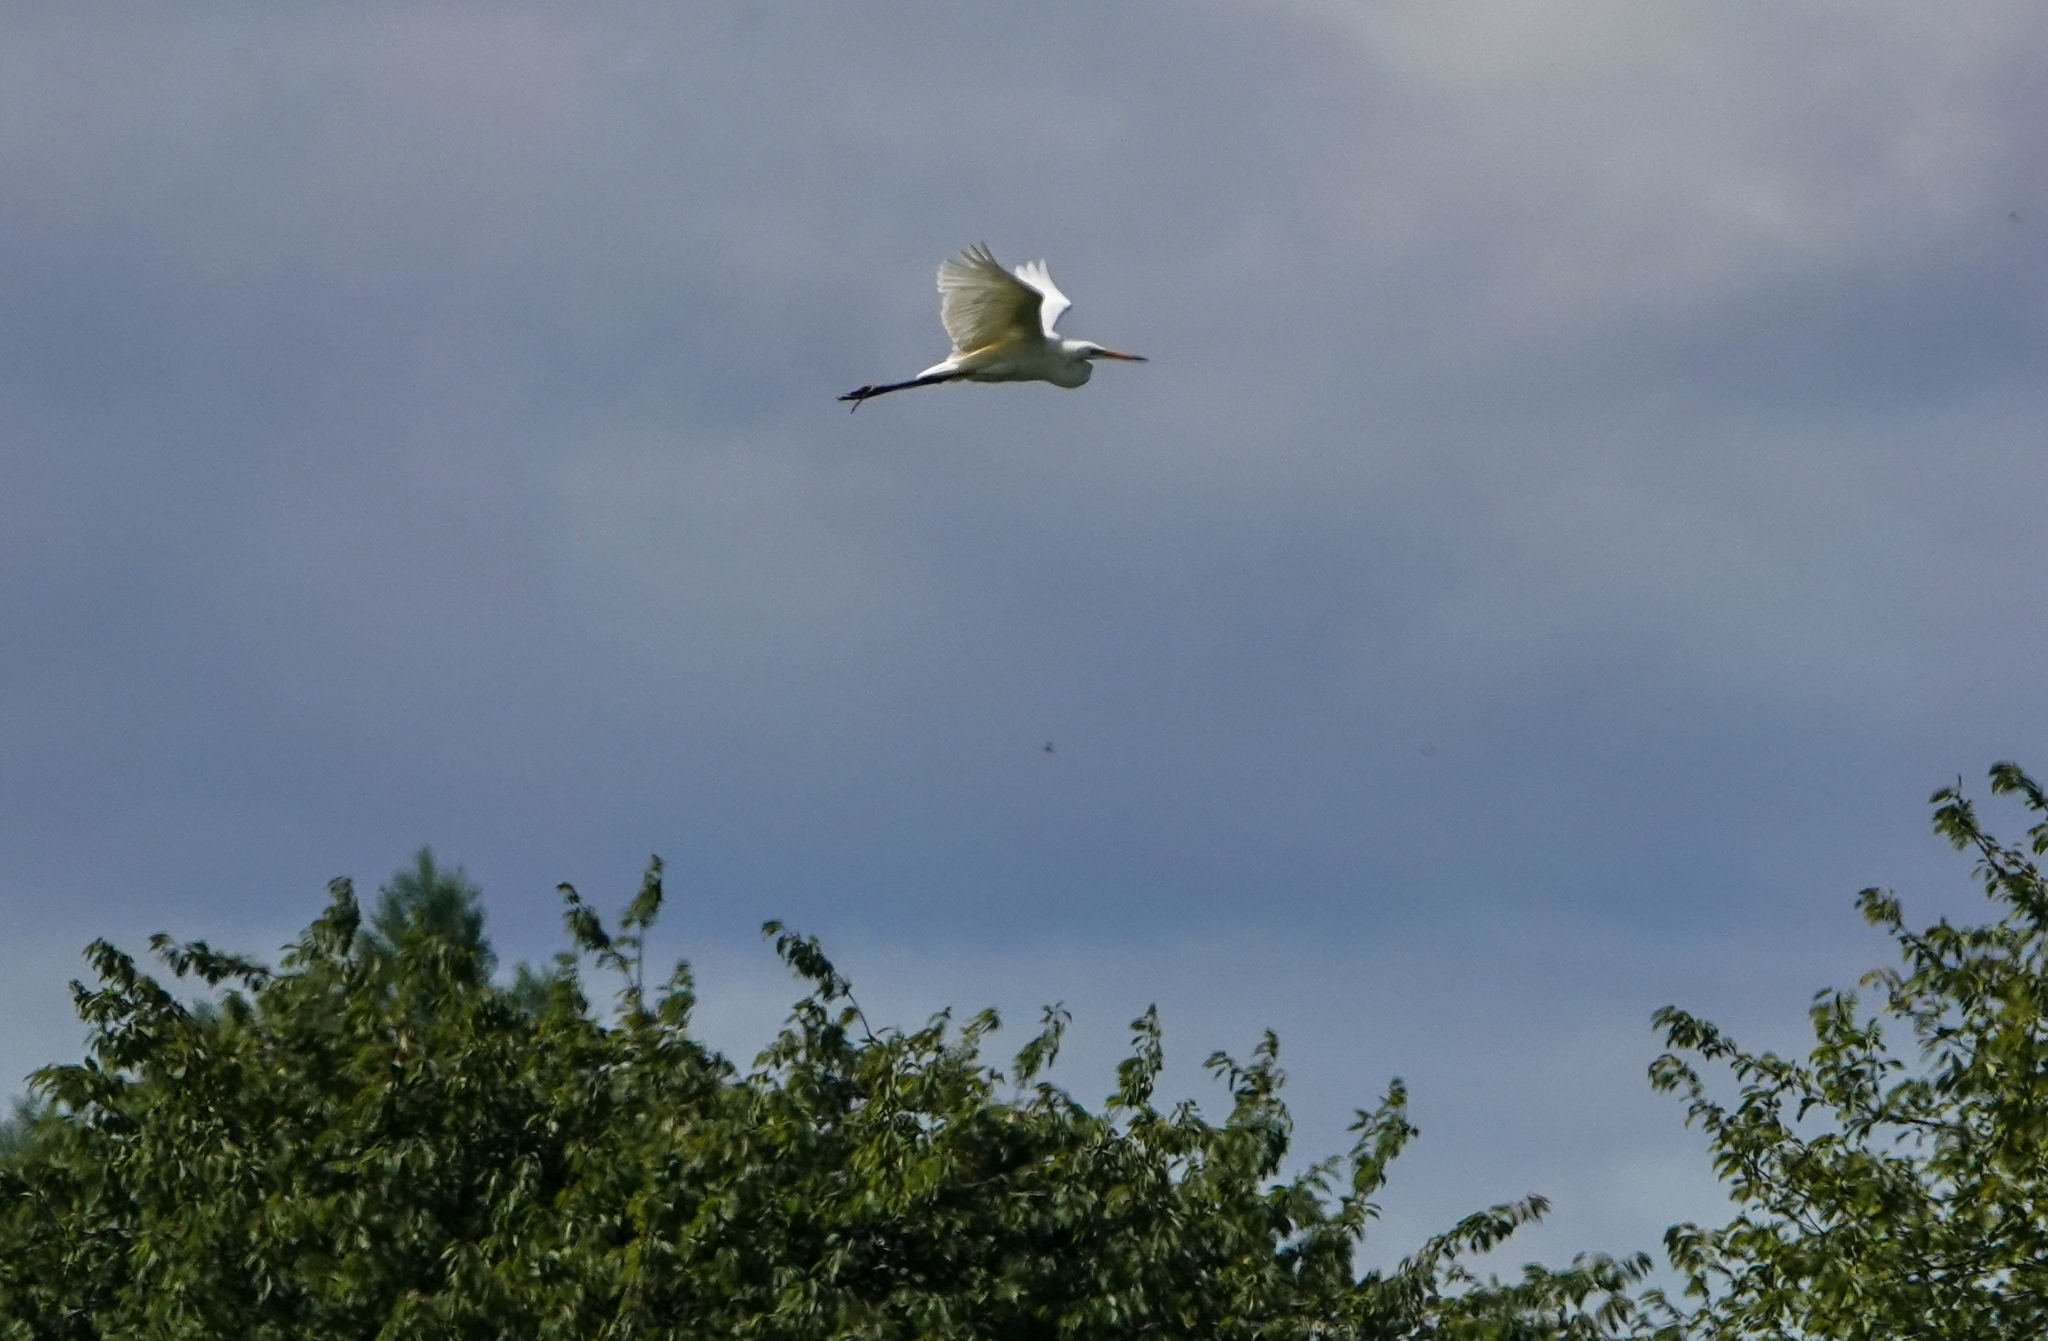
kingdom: Animalia
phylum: Chordata
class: Aves
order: Pelecaniformes
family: Ardeidae
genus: Ardea
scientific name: Ardea alba
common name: Great egret
